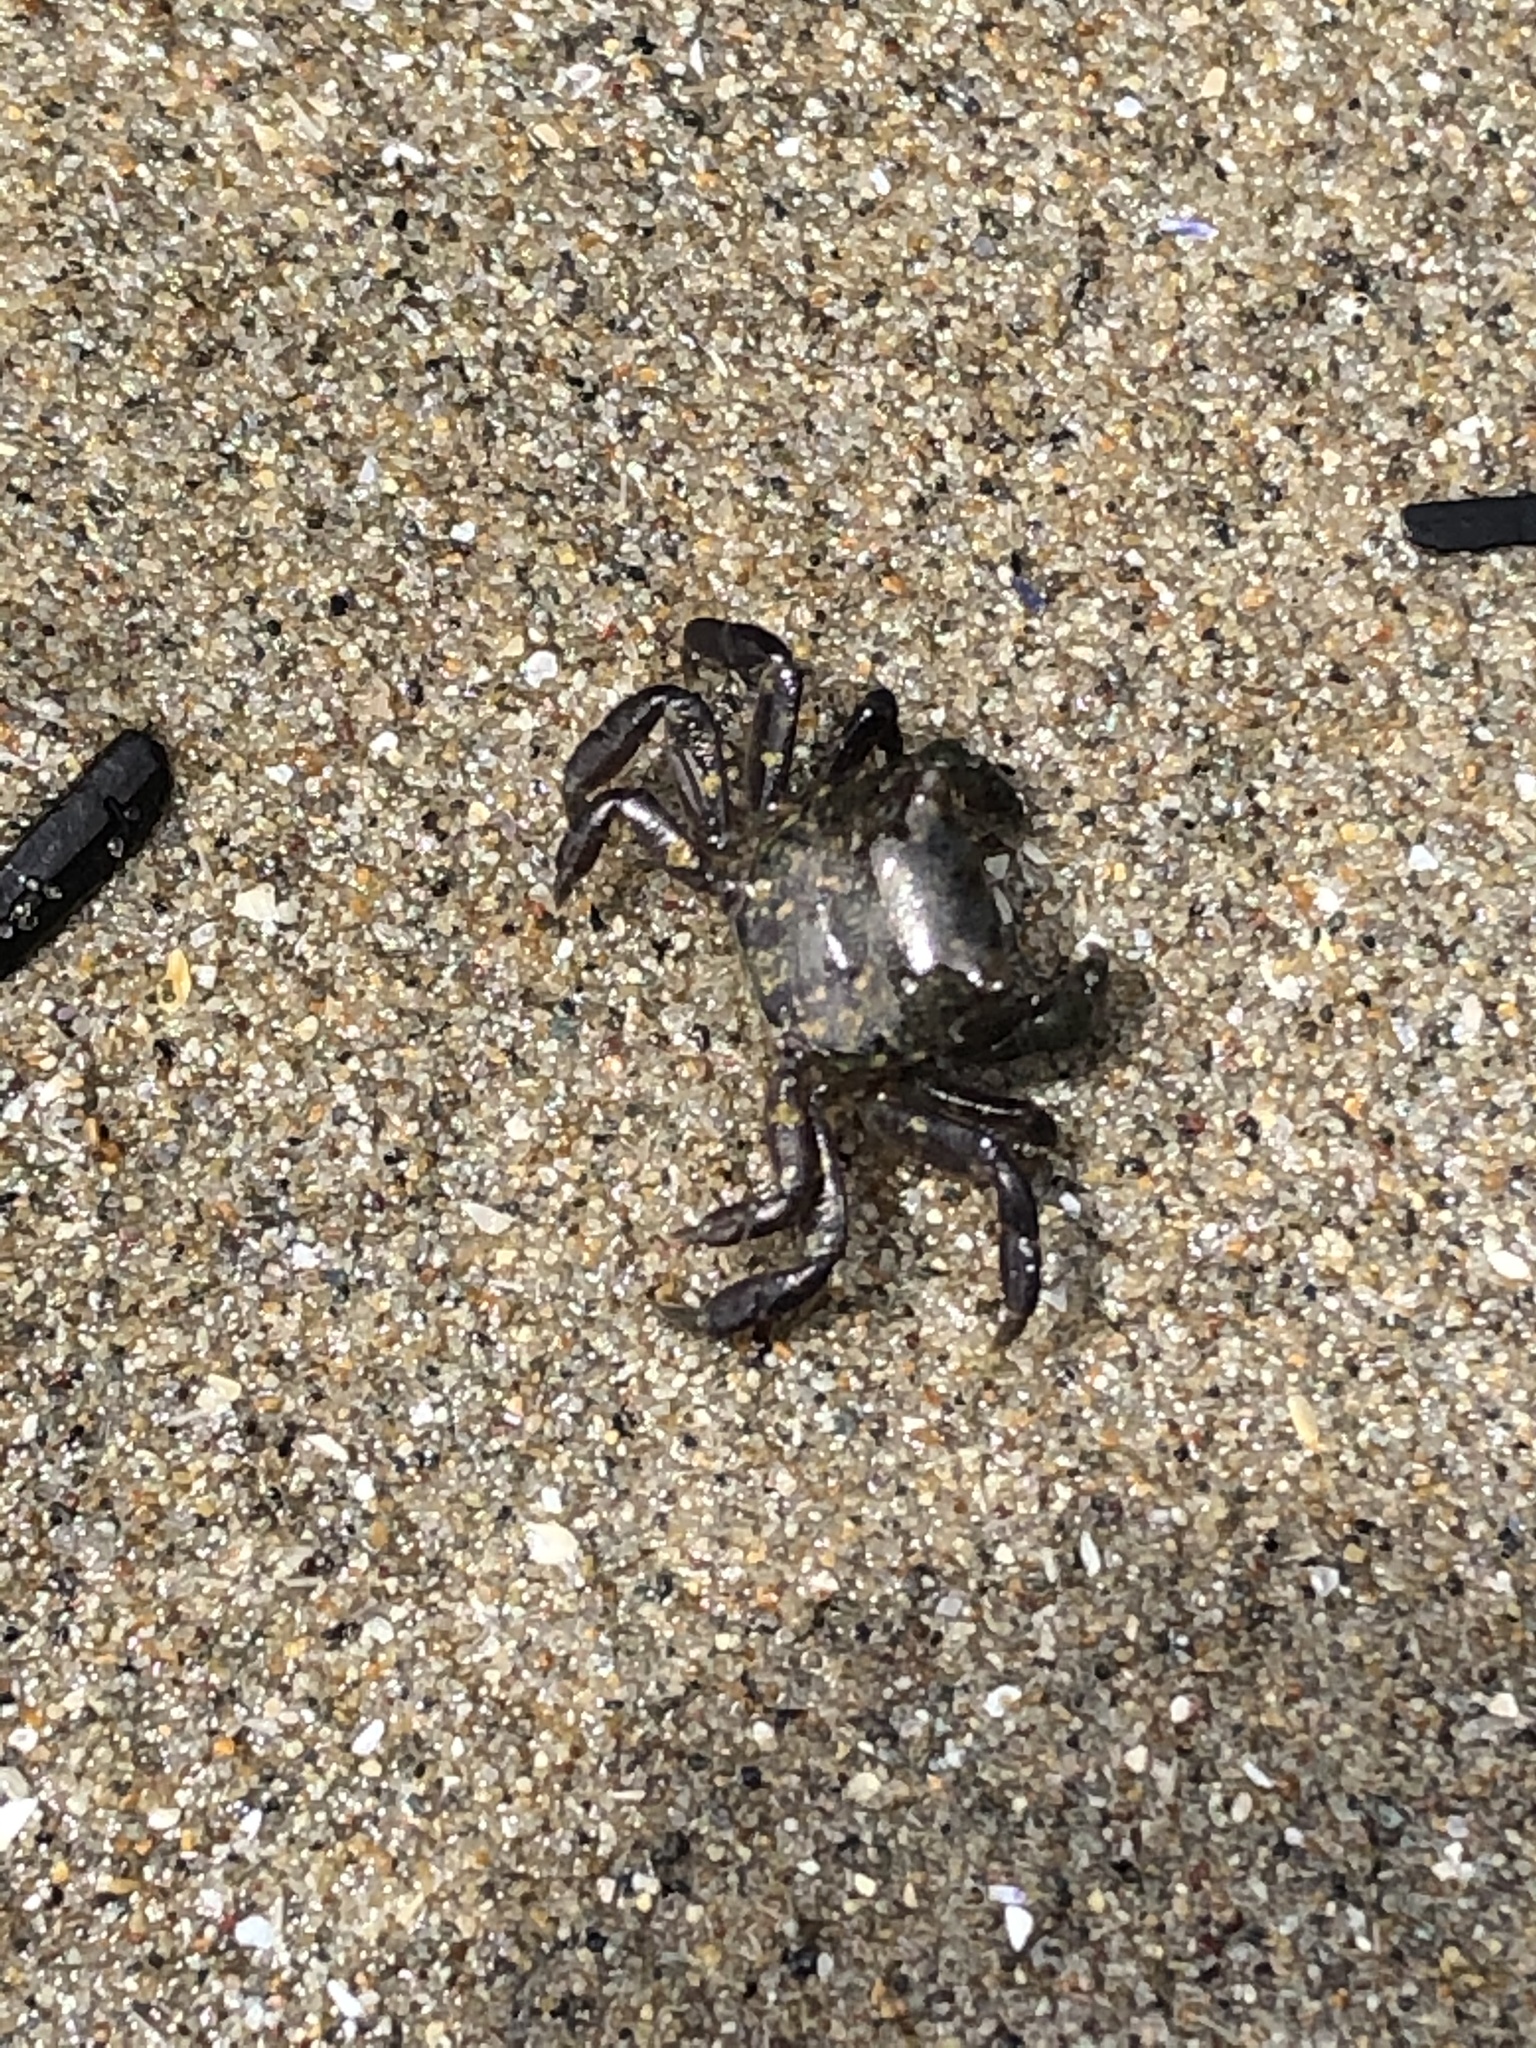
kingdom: Animalia
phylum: Arthropoda
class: Malacostraca
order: Decapoda
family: Varunidae
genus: Hemigrapsus
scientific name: Hemigrapsus nudus
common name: Purple shore crab
